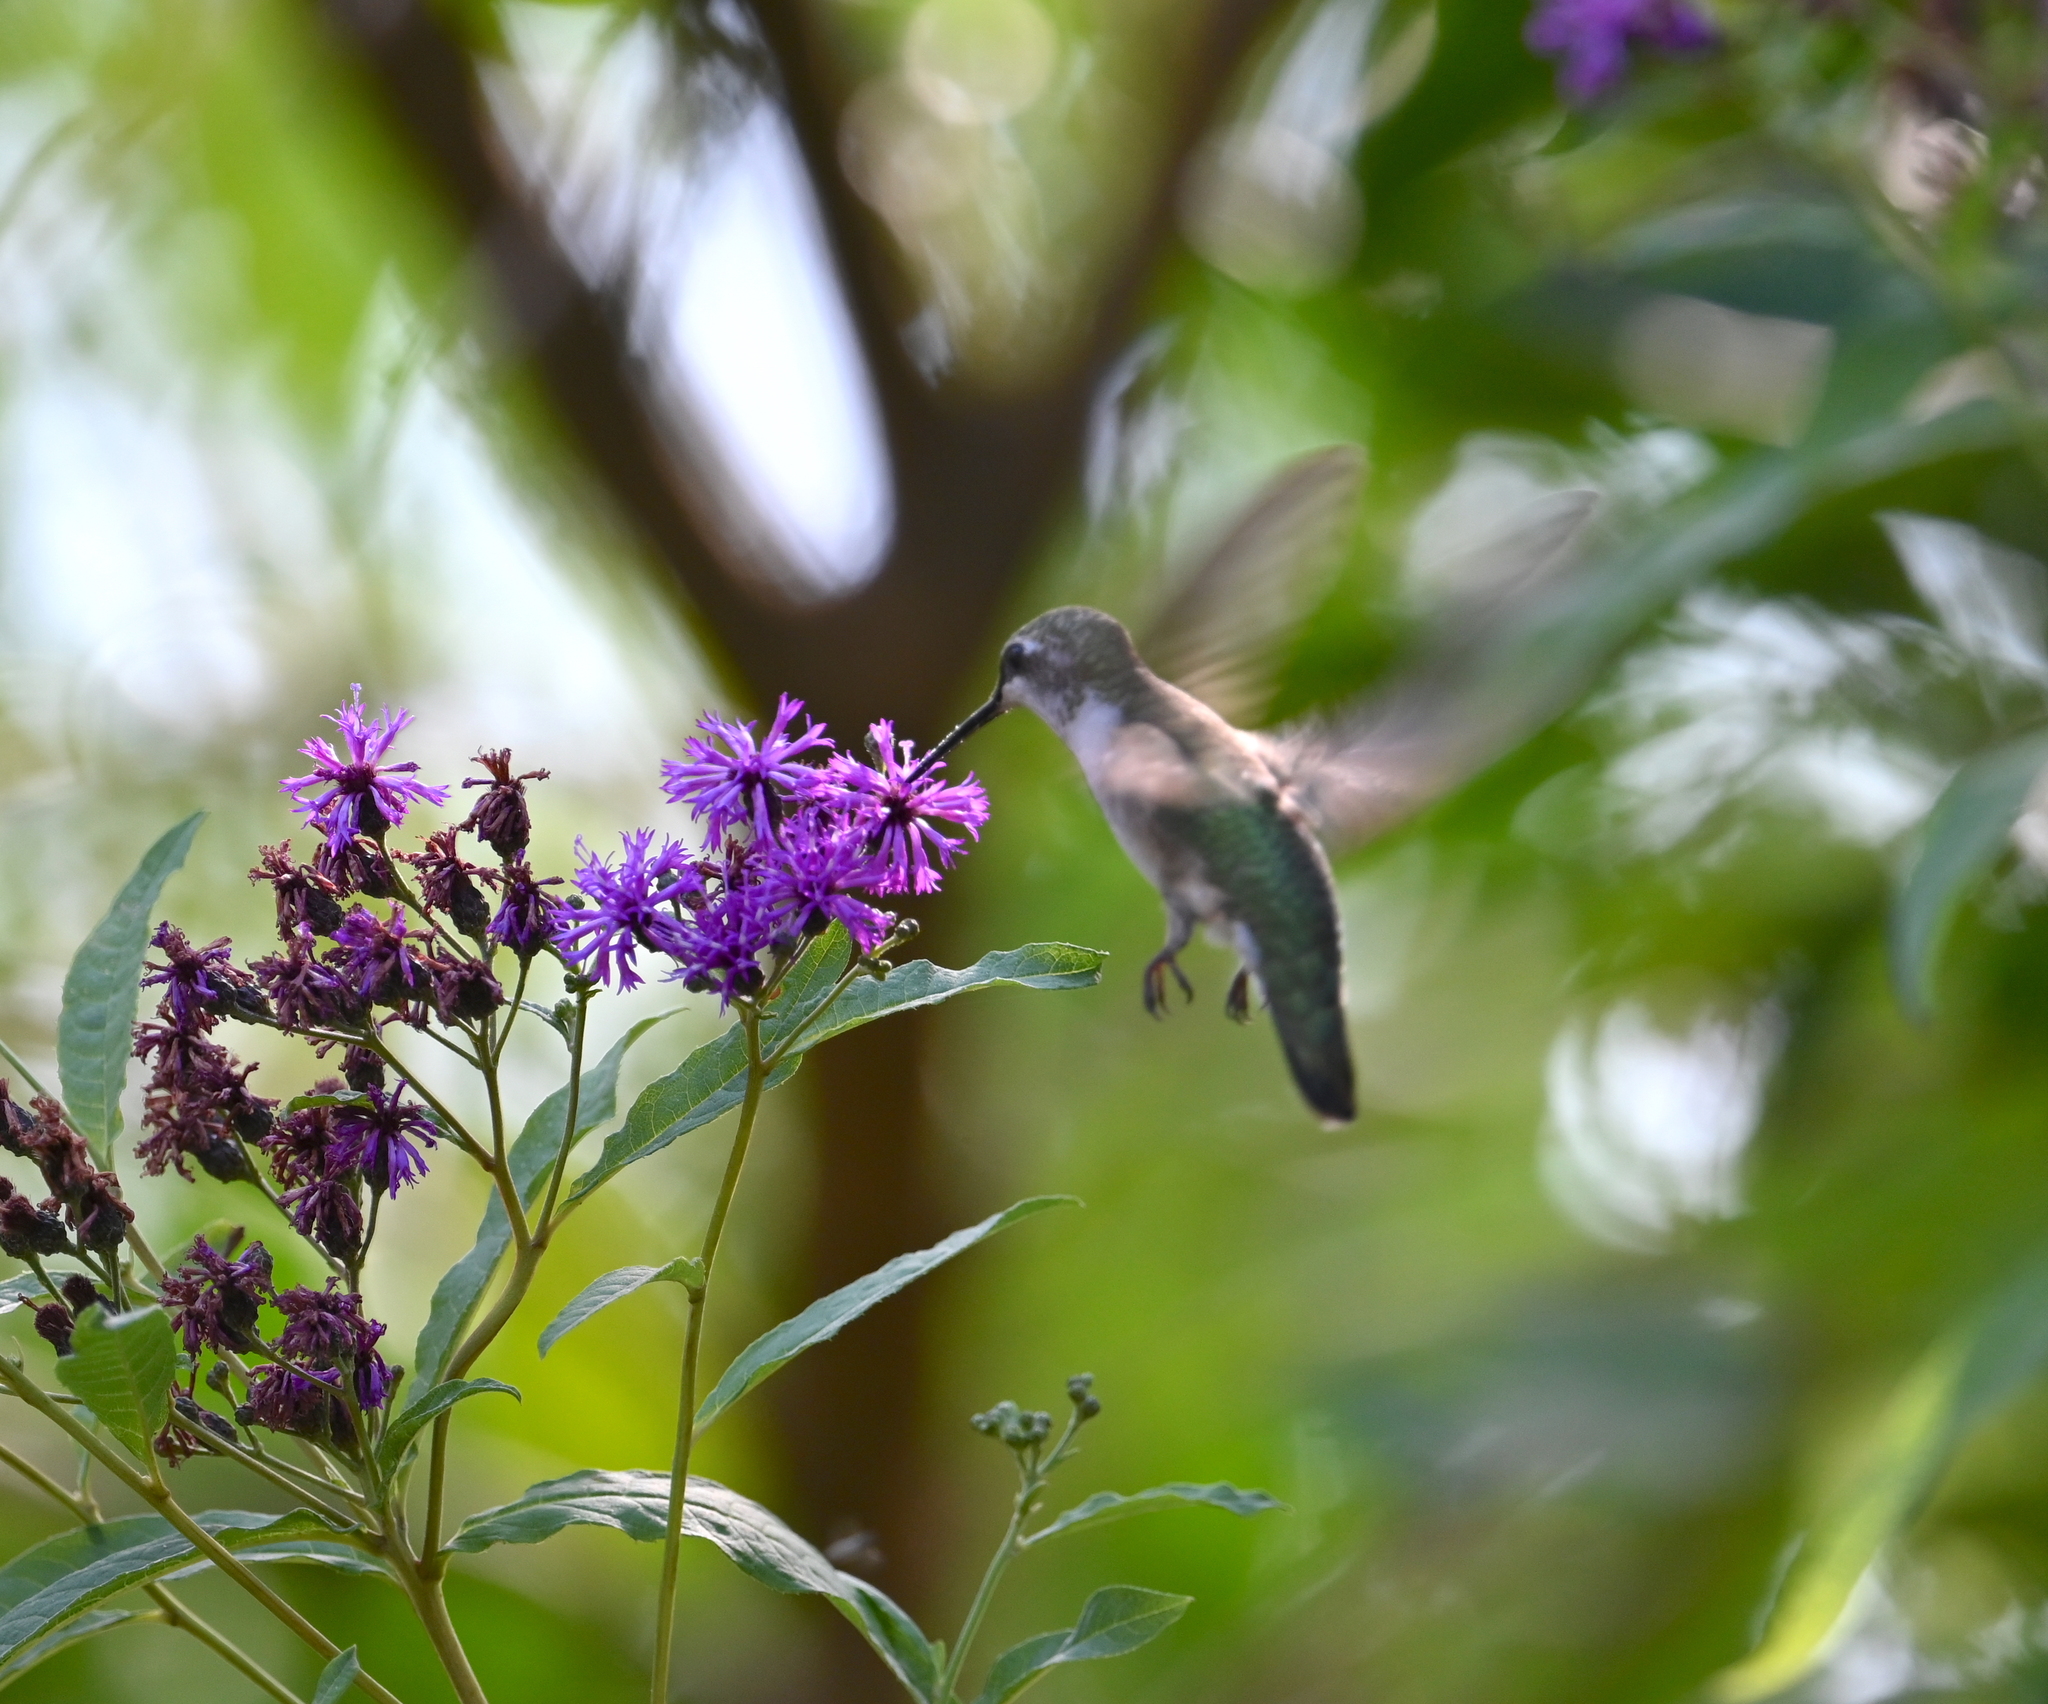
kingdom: Animalia
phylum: Chordata
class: Aves
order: Apodiformes
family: Trochilidae
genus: Archilochus
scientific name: Archilochus colubris
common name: Ruby-throated hummingbird
